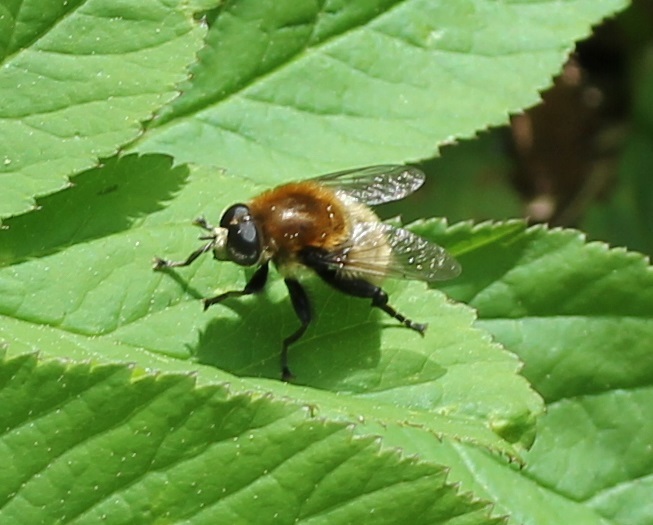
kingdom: Animalia
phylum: Arthropoda
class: Insecta
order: Diptera
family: Syrphidae
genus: Merodon
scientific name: Merodon equestris
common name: Greater bulb-fly
